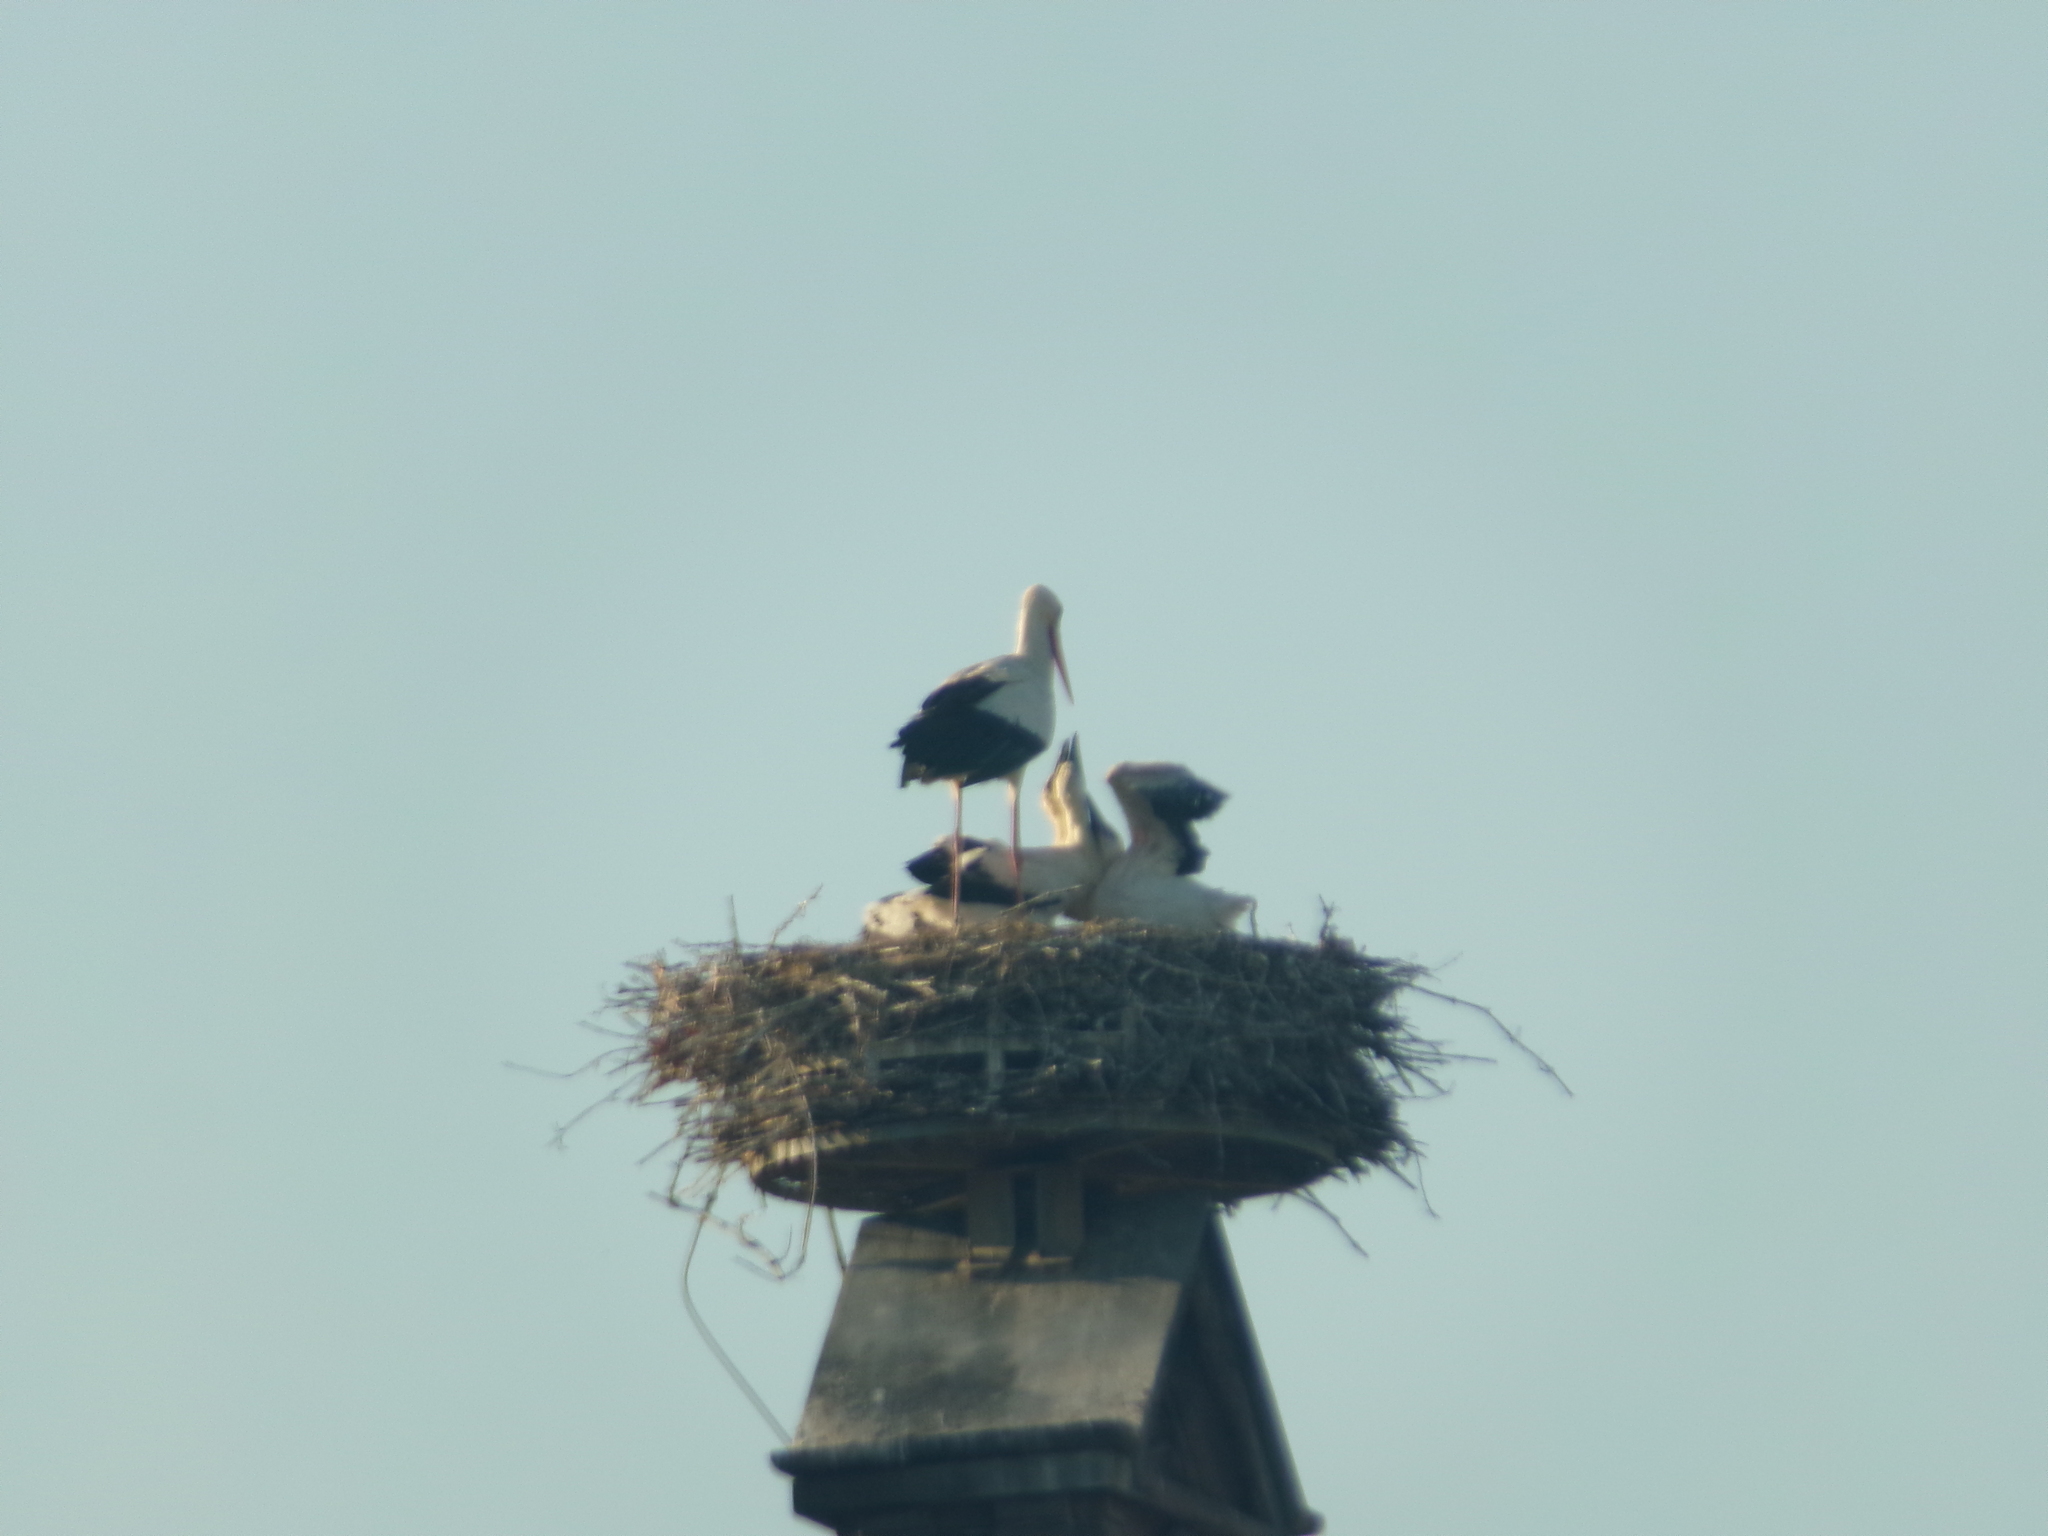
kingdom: Animalia
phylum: Chordata
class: Aves
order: Ciconiiformes
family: Ciconiidae
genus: Ciconia
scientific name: Ciconia ciconia
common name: White stork
